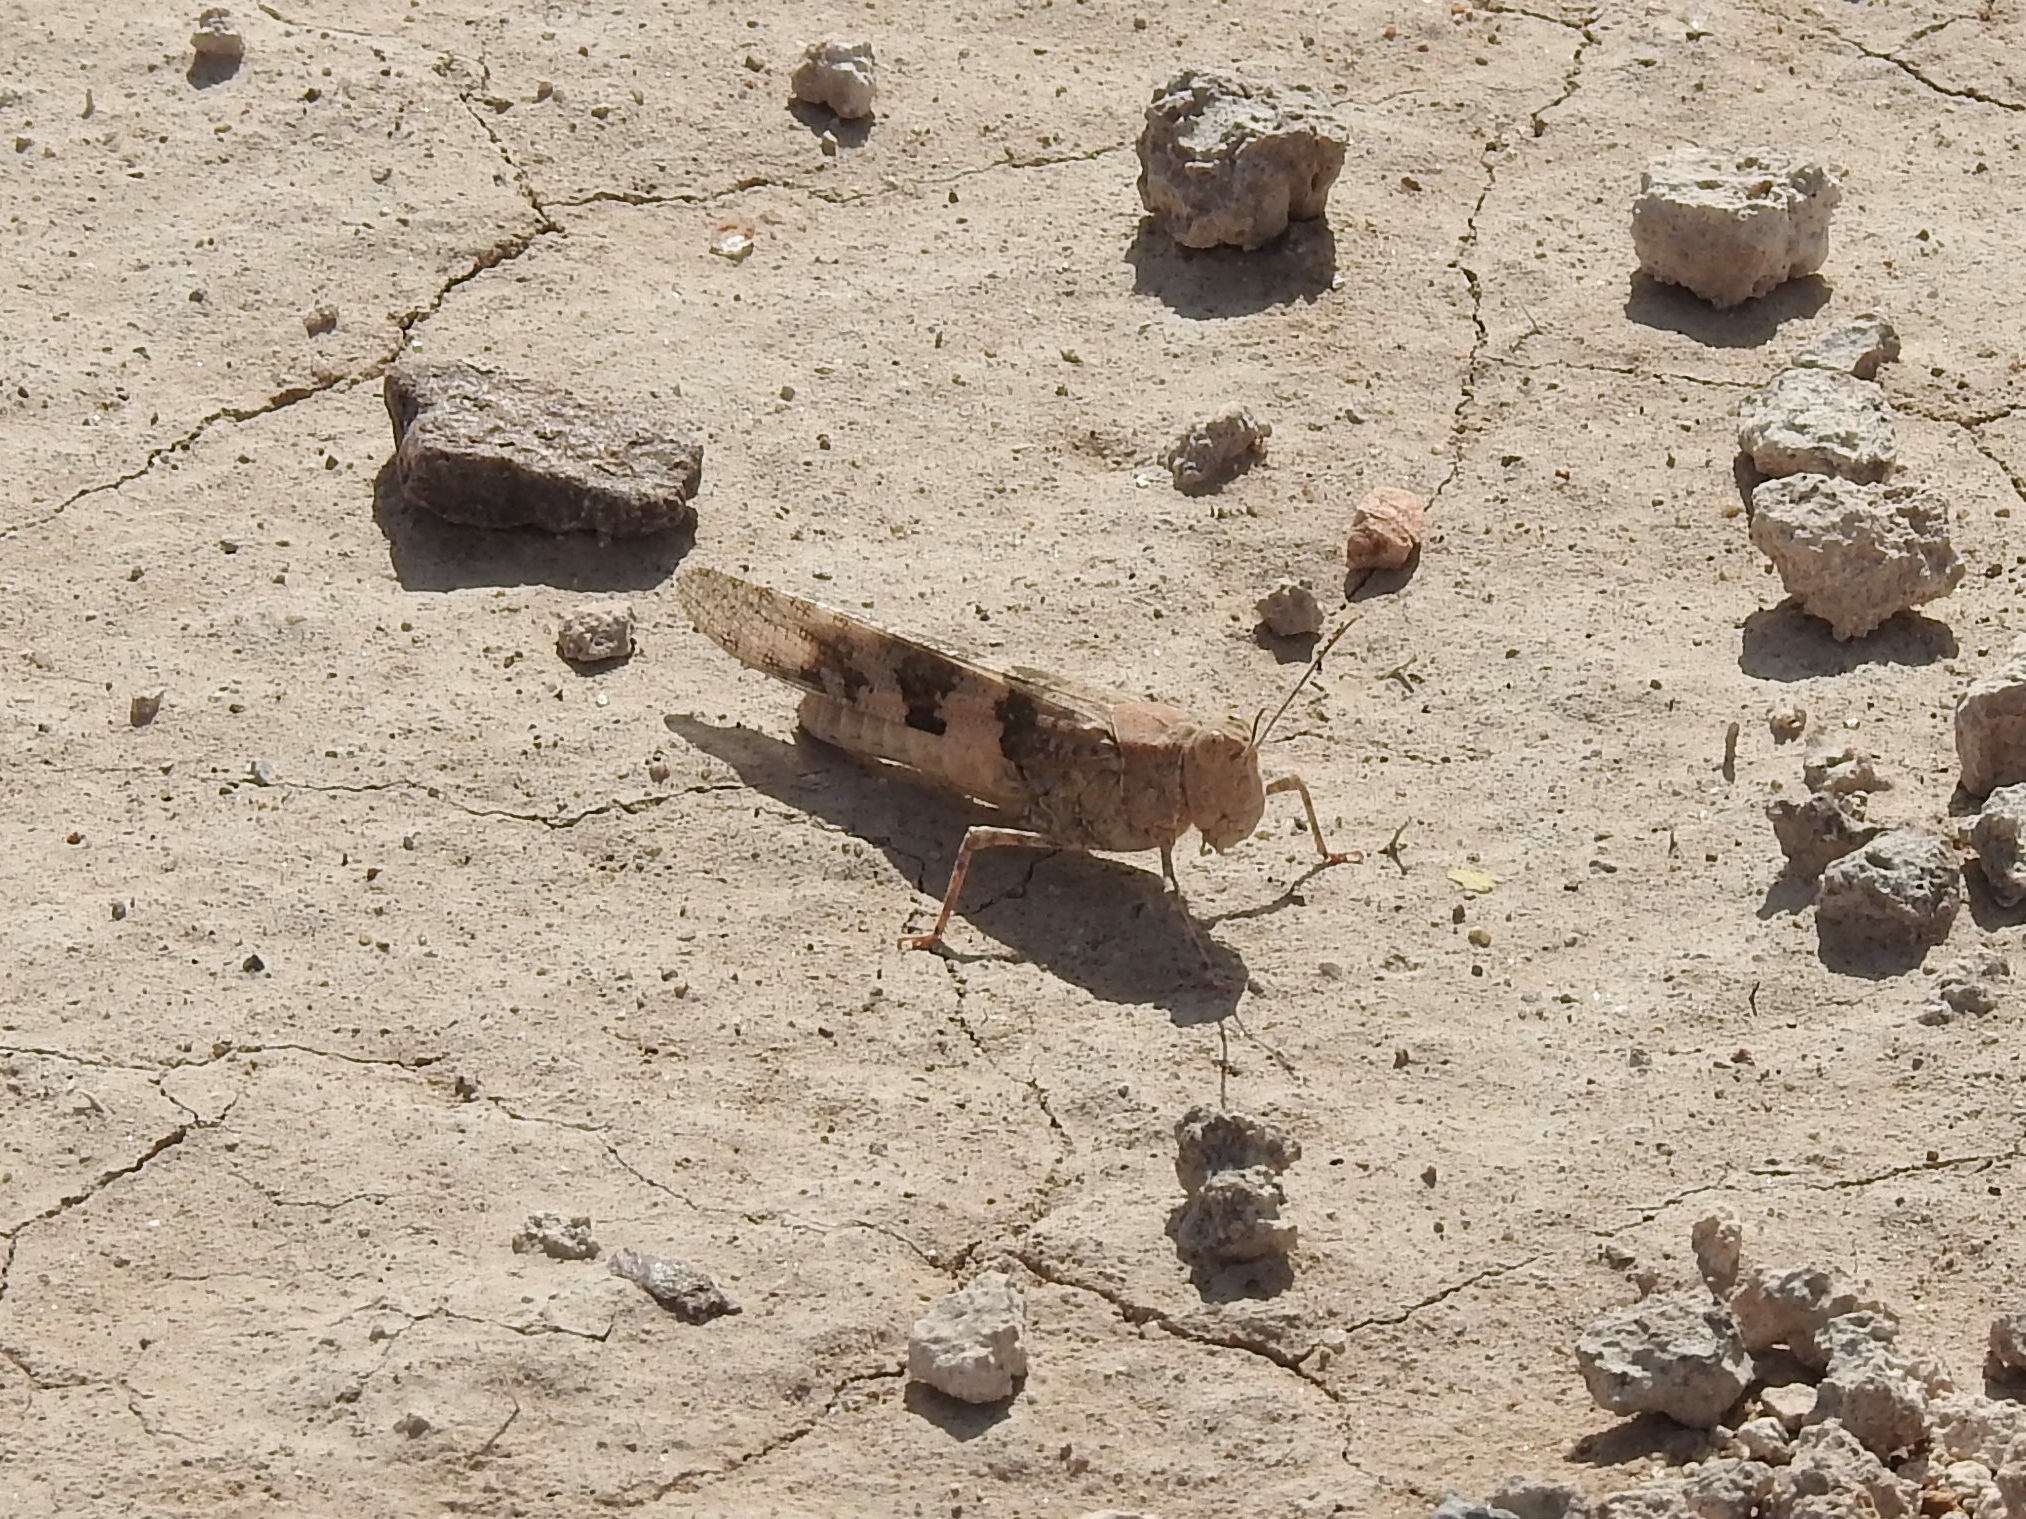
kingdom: Animalia
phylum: Arthropoda
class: Insecta
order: Orthoptera
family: Acrididae
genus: Trimerotropis
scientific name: Trimerotropis pallidipennis
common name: Pallid-winged grasshopper
